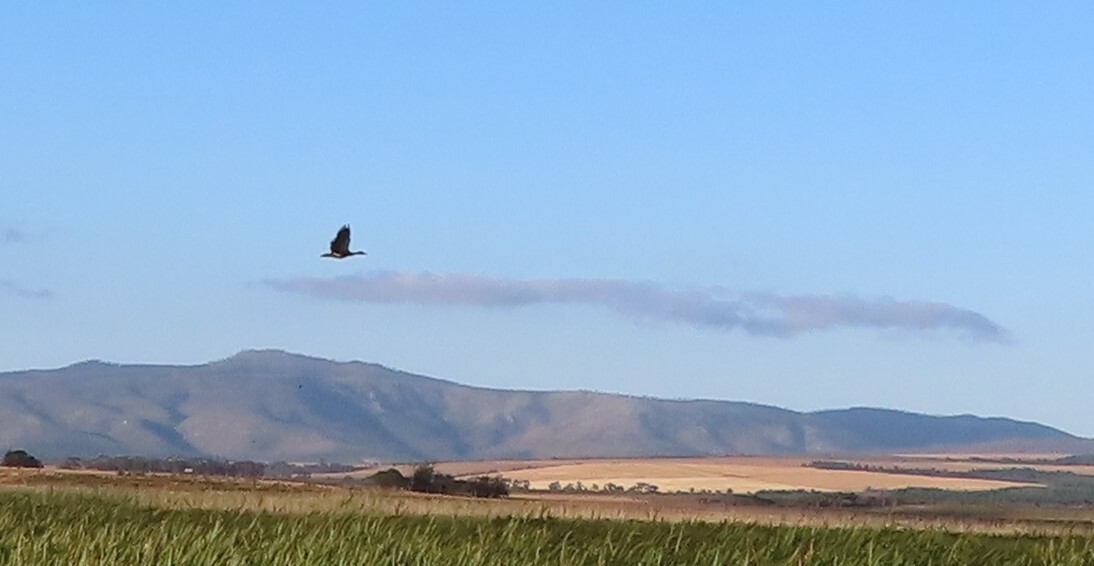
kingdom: Animalia
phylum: Chordata
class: Aves
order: Anseriformes
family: Anatidae
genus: Plectropterus
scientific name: Plectropterus gambensis
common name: Spur-winged goose
